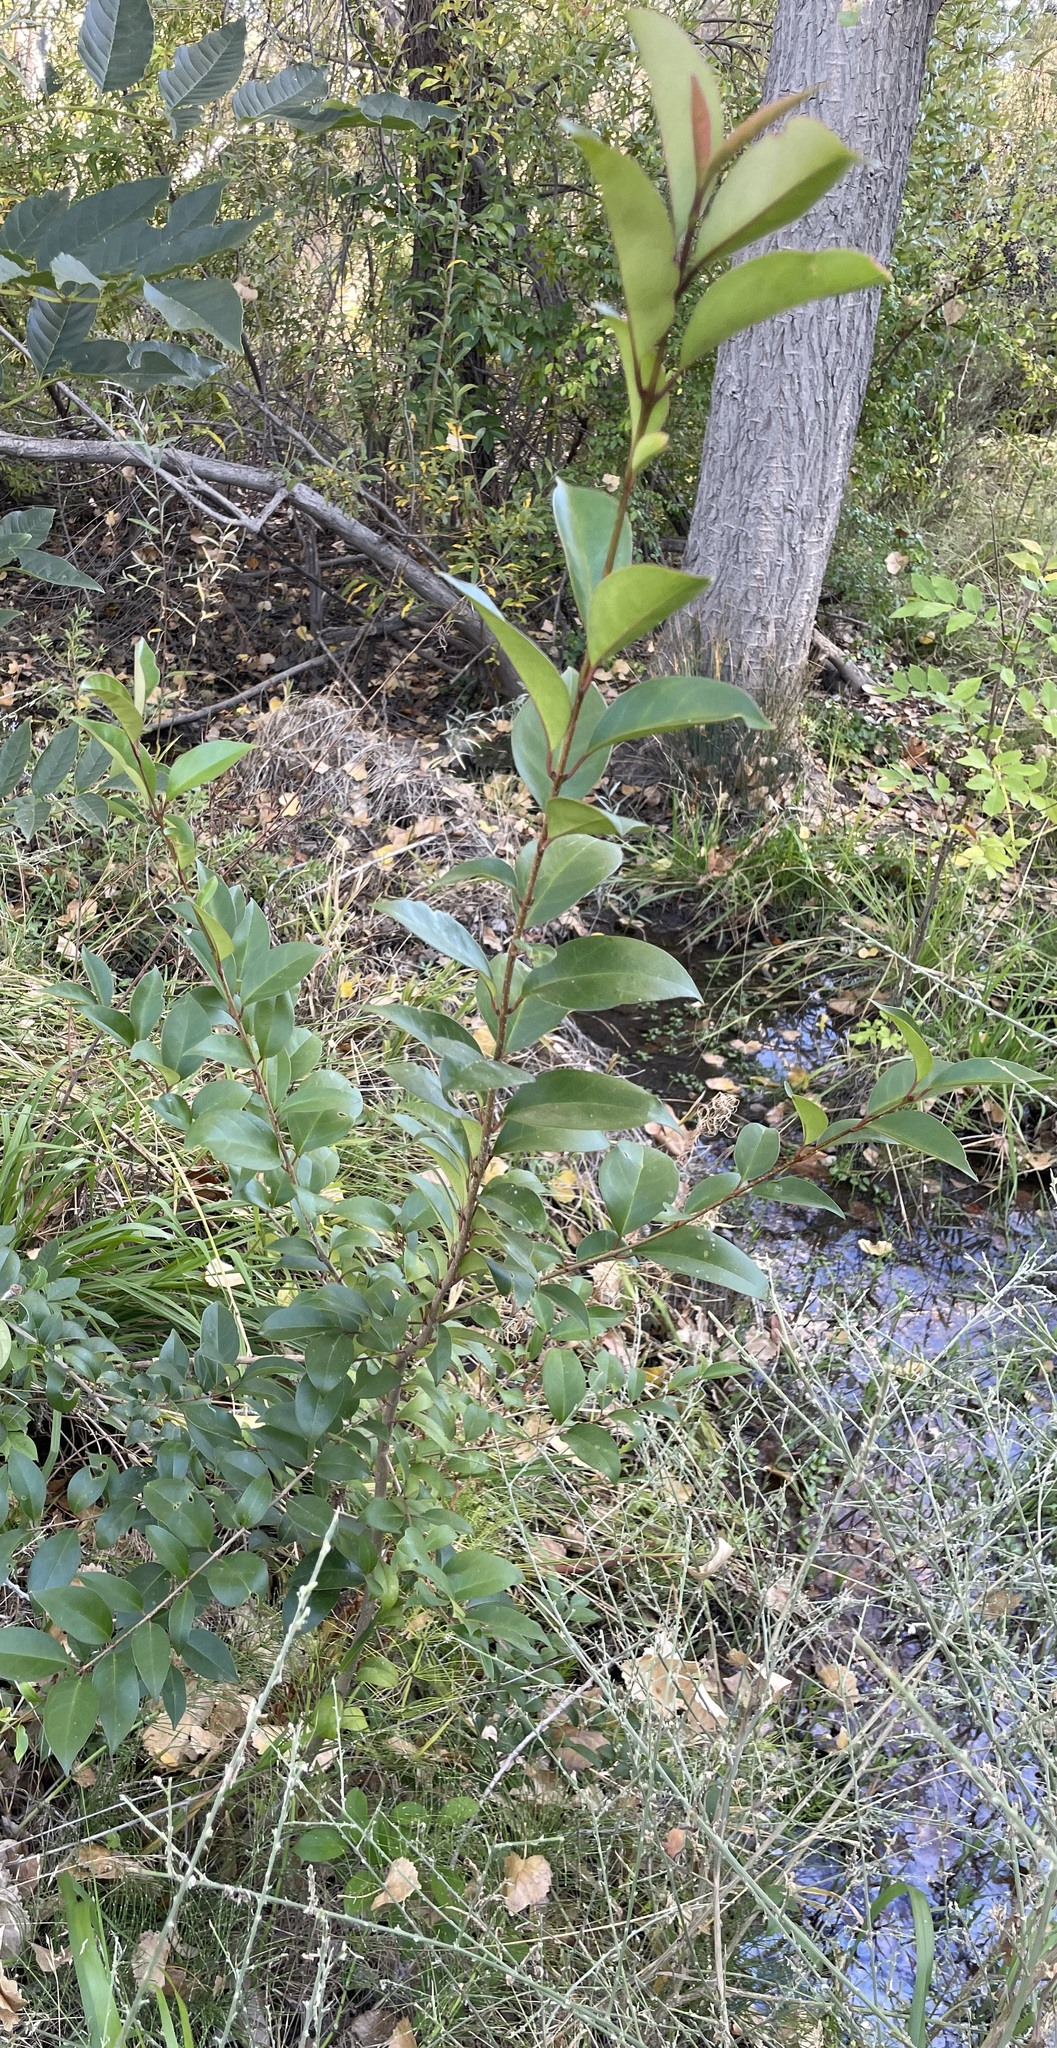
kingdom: Plantae
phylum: Tracheophyta
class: Magnoliopsida
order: Lamiales
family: Oleaceae
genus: Ligustrum
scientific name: Ligustrum lucidum
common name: Glossy privet
